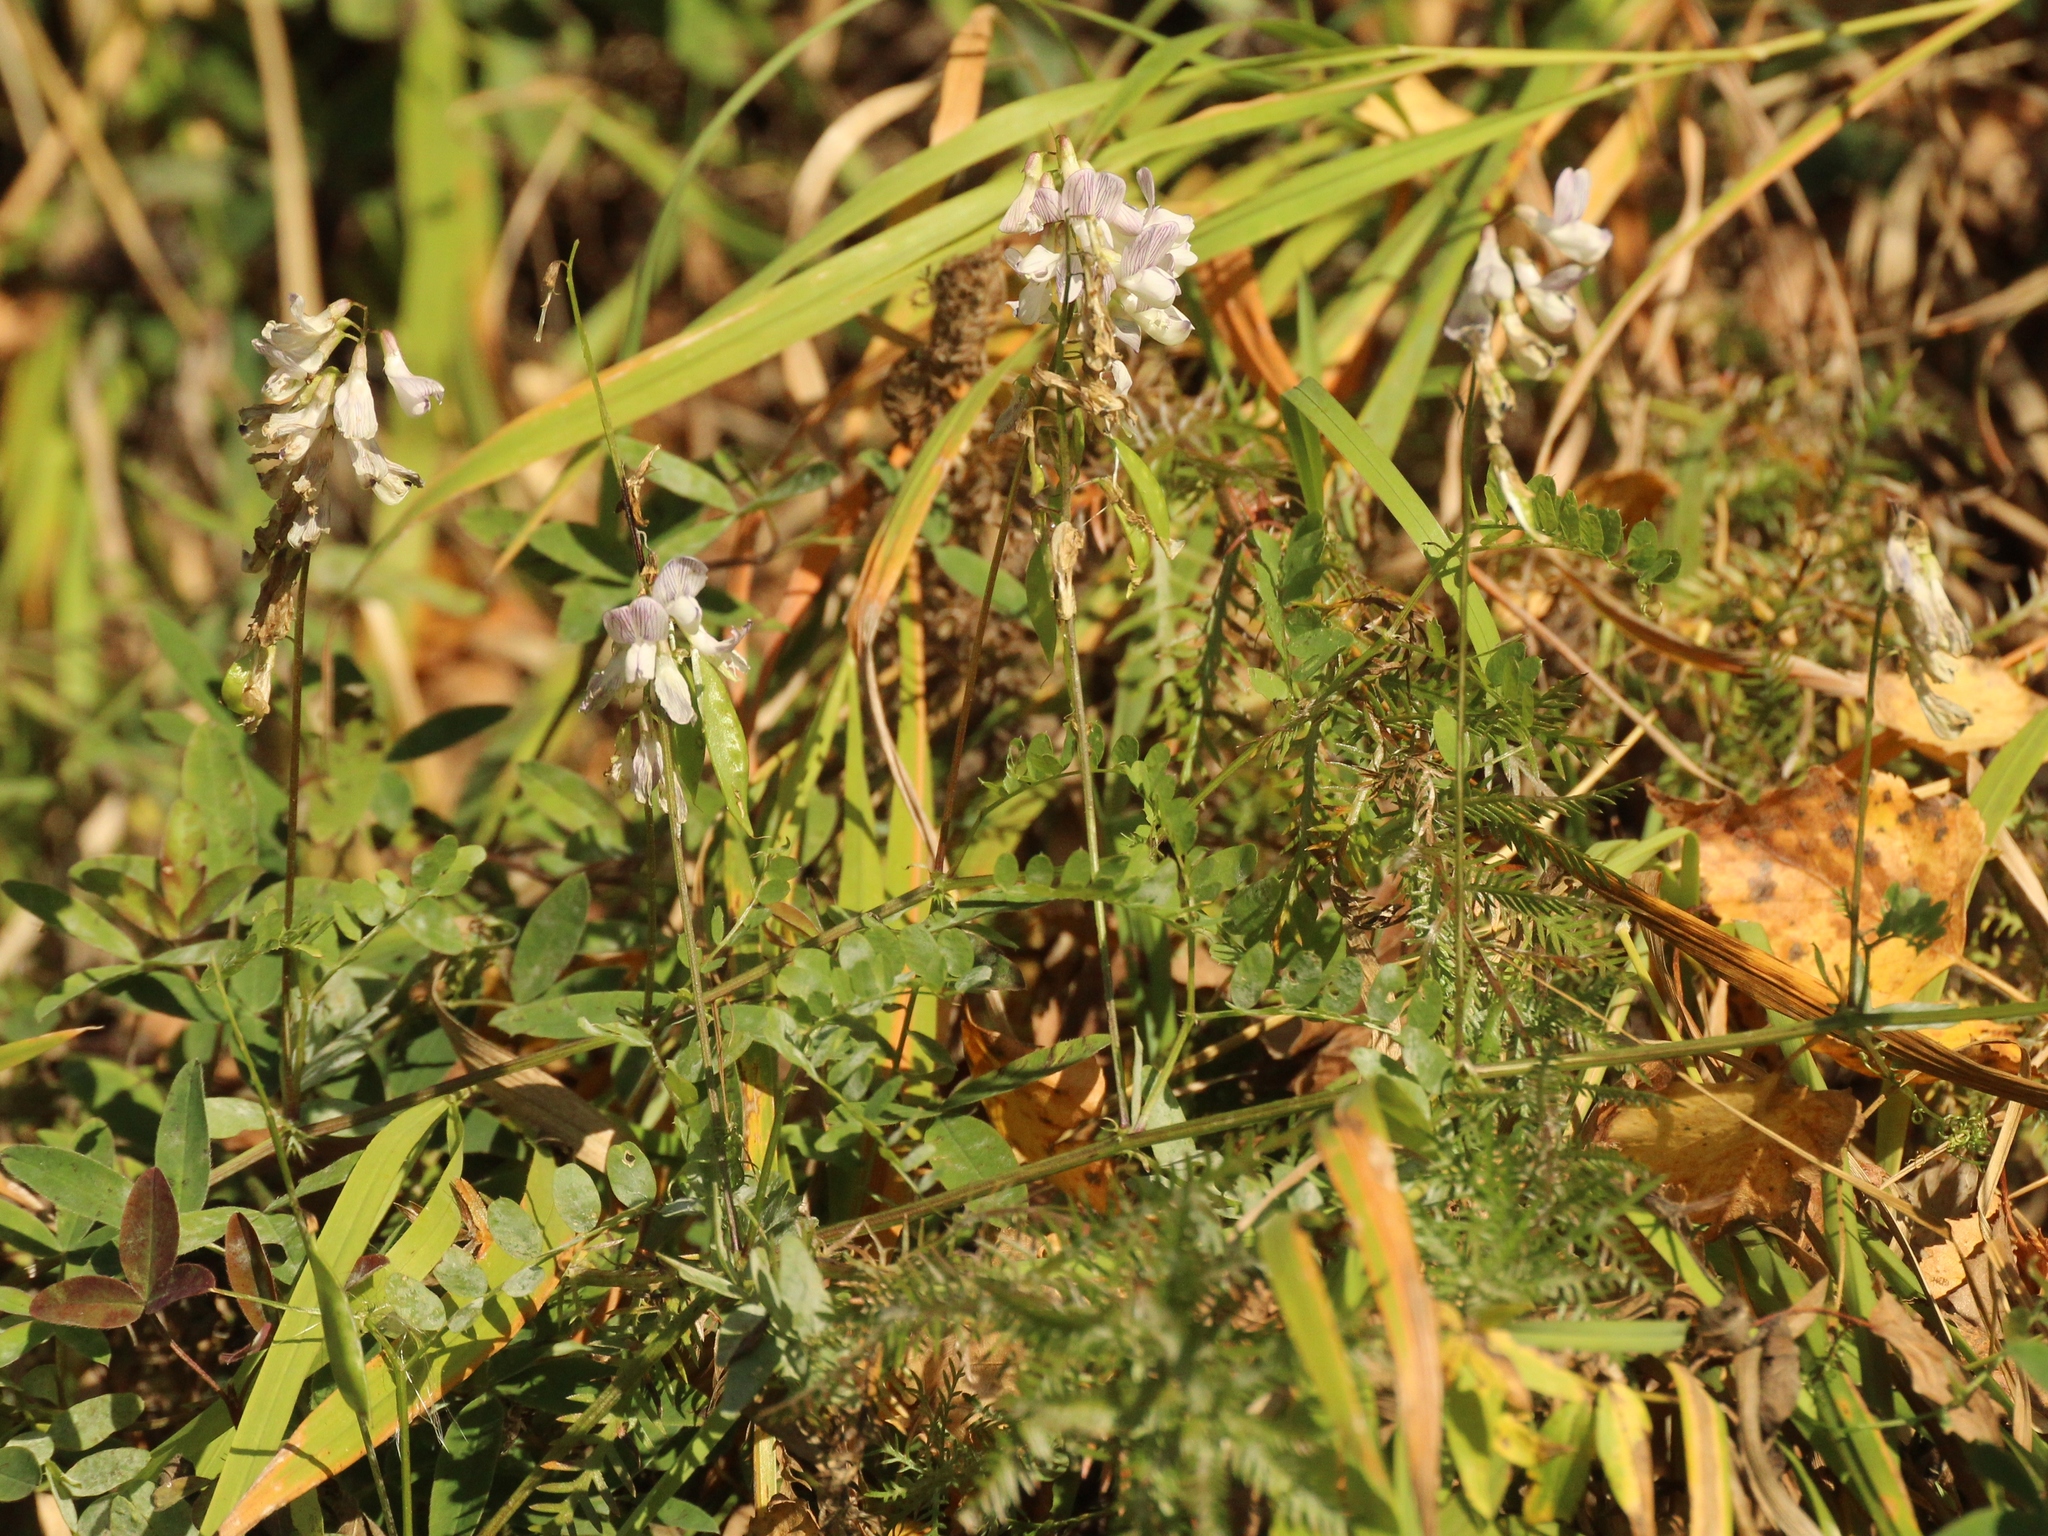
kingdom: Plantae
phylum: Tracheophyta
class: Magnoliopsida
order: Fabales
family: Fabaceae
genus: Vicia
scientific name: Vicia sylvatica
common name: Wood vetch
